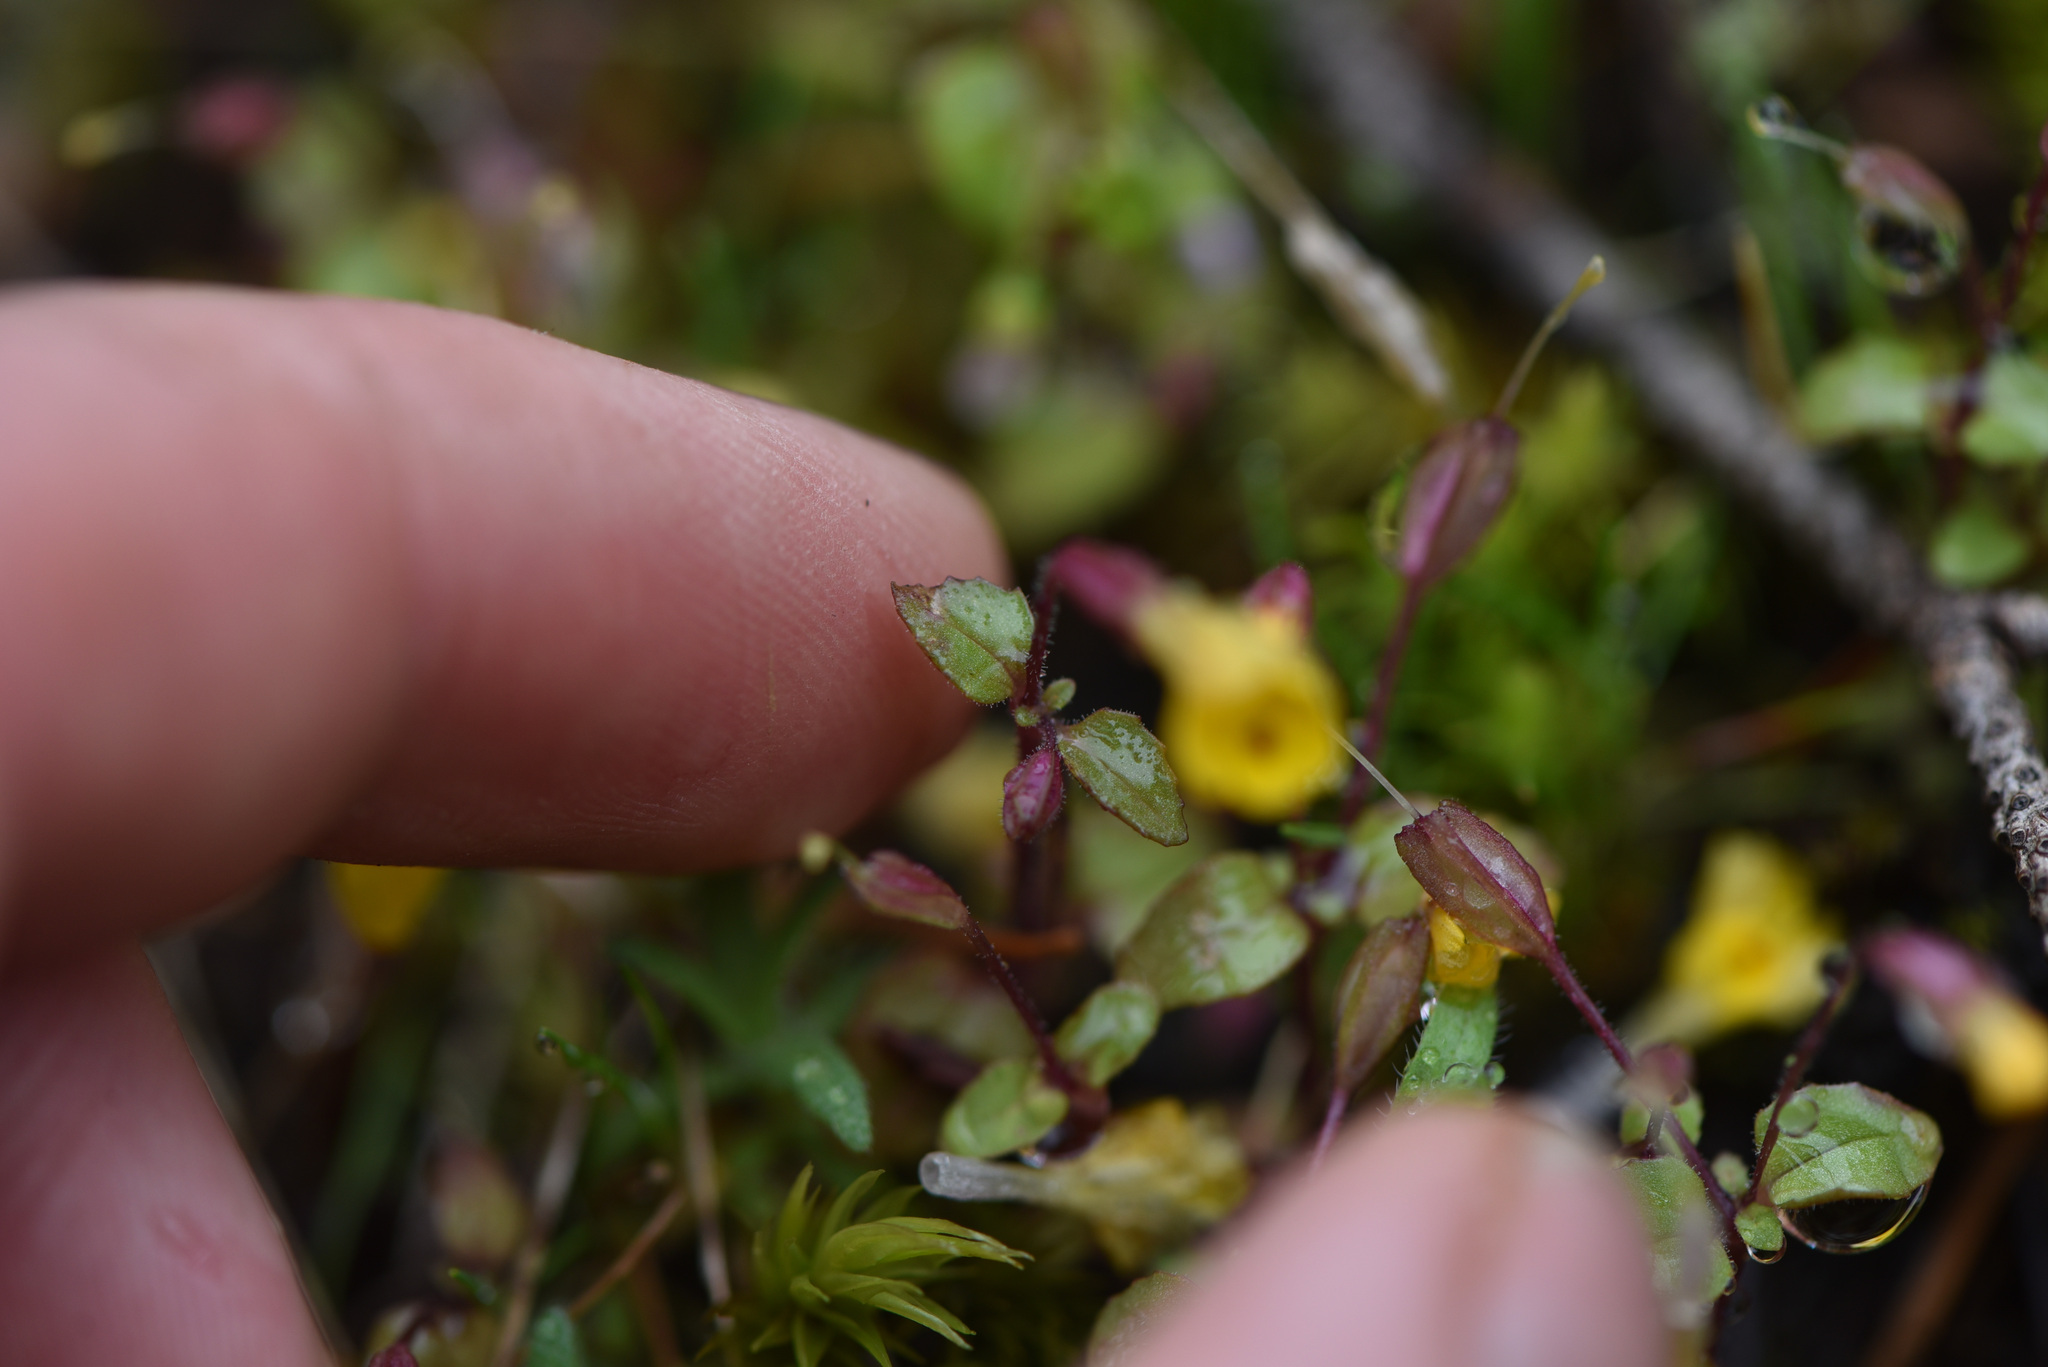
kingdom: Plantae
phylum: Tracheophyta
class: Magnoliopsida
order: Lamiales
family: Phrymaceae
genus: Erythranthe
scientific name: Erythranthe alsinoides
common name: Chickweed monkeyflower
